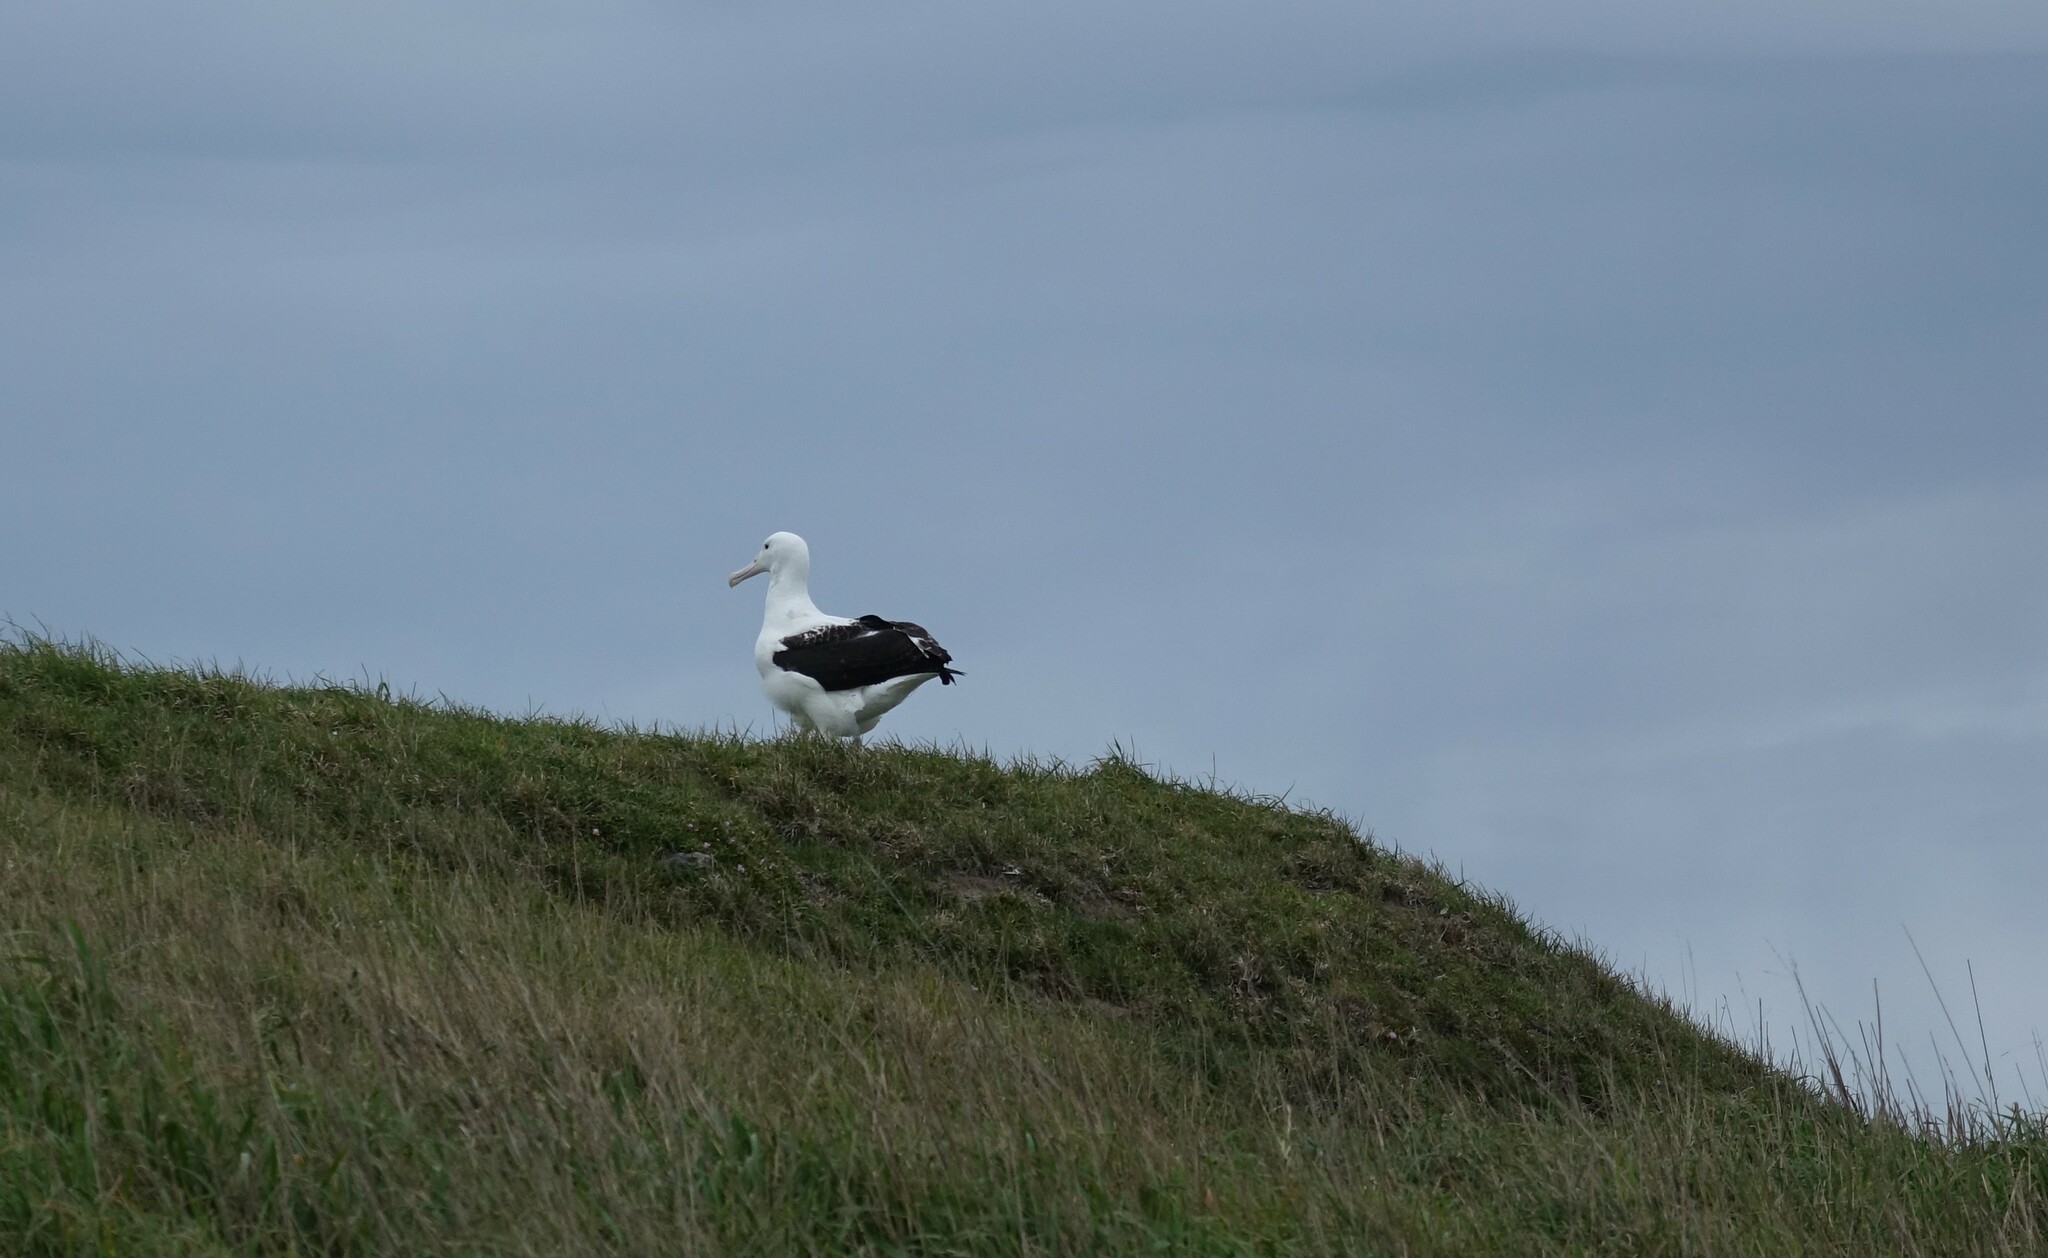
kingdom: Animalia
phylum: Chordata
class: Aves
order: Procellariiformes
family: Diomedeidae
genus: Diomedea
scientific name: Diomedea sanfordi
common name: Northern royal albatross
